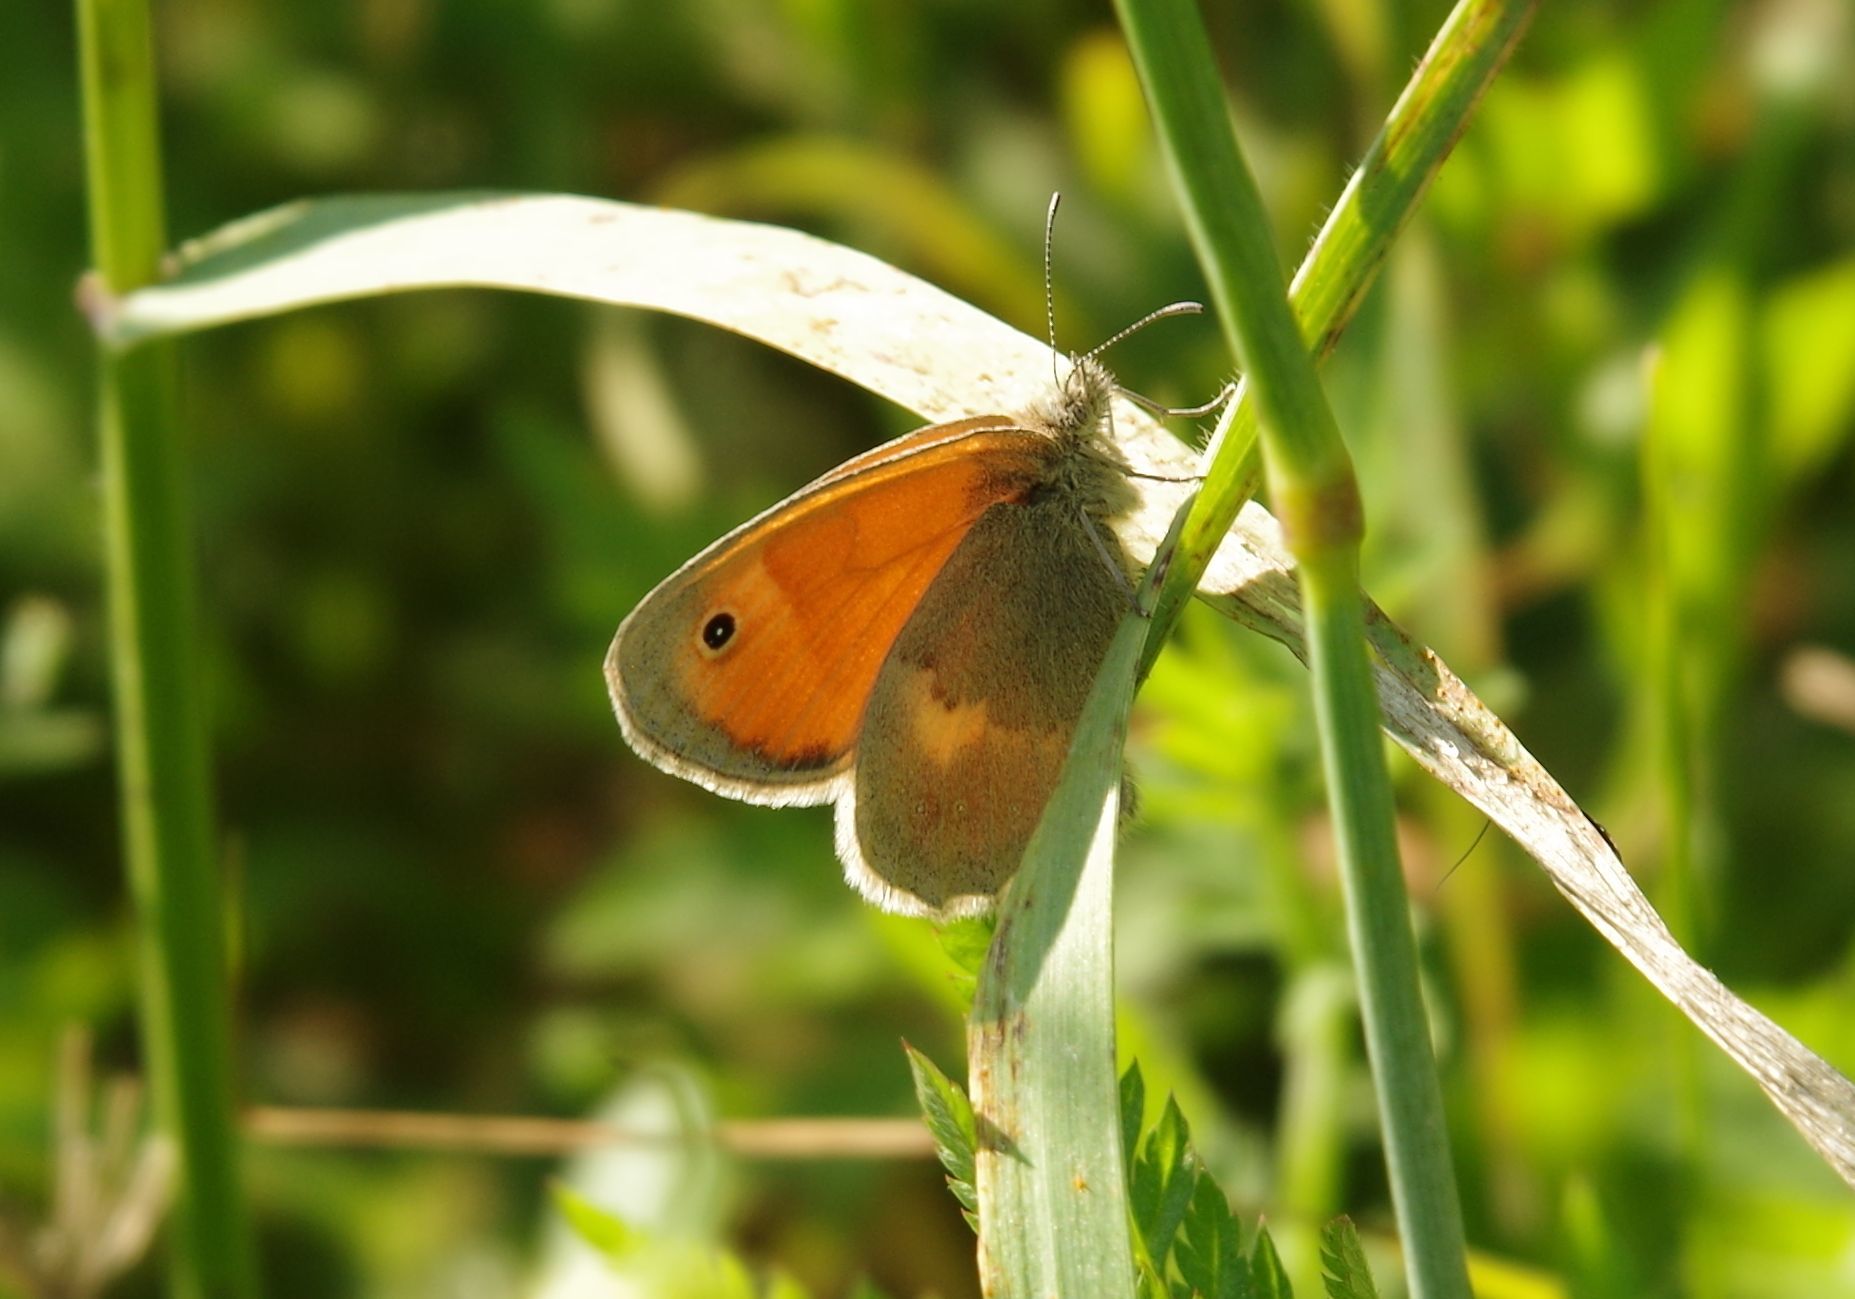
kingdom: Animalia
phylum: Arthropoda
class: Insecta
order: Lepidoptera
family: Nymphalidae
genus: Coenonympha
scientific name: Coenonympha pamphilus
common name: Small heath
